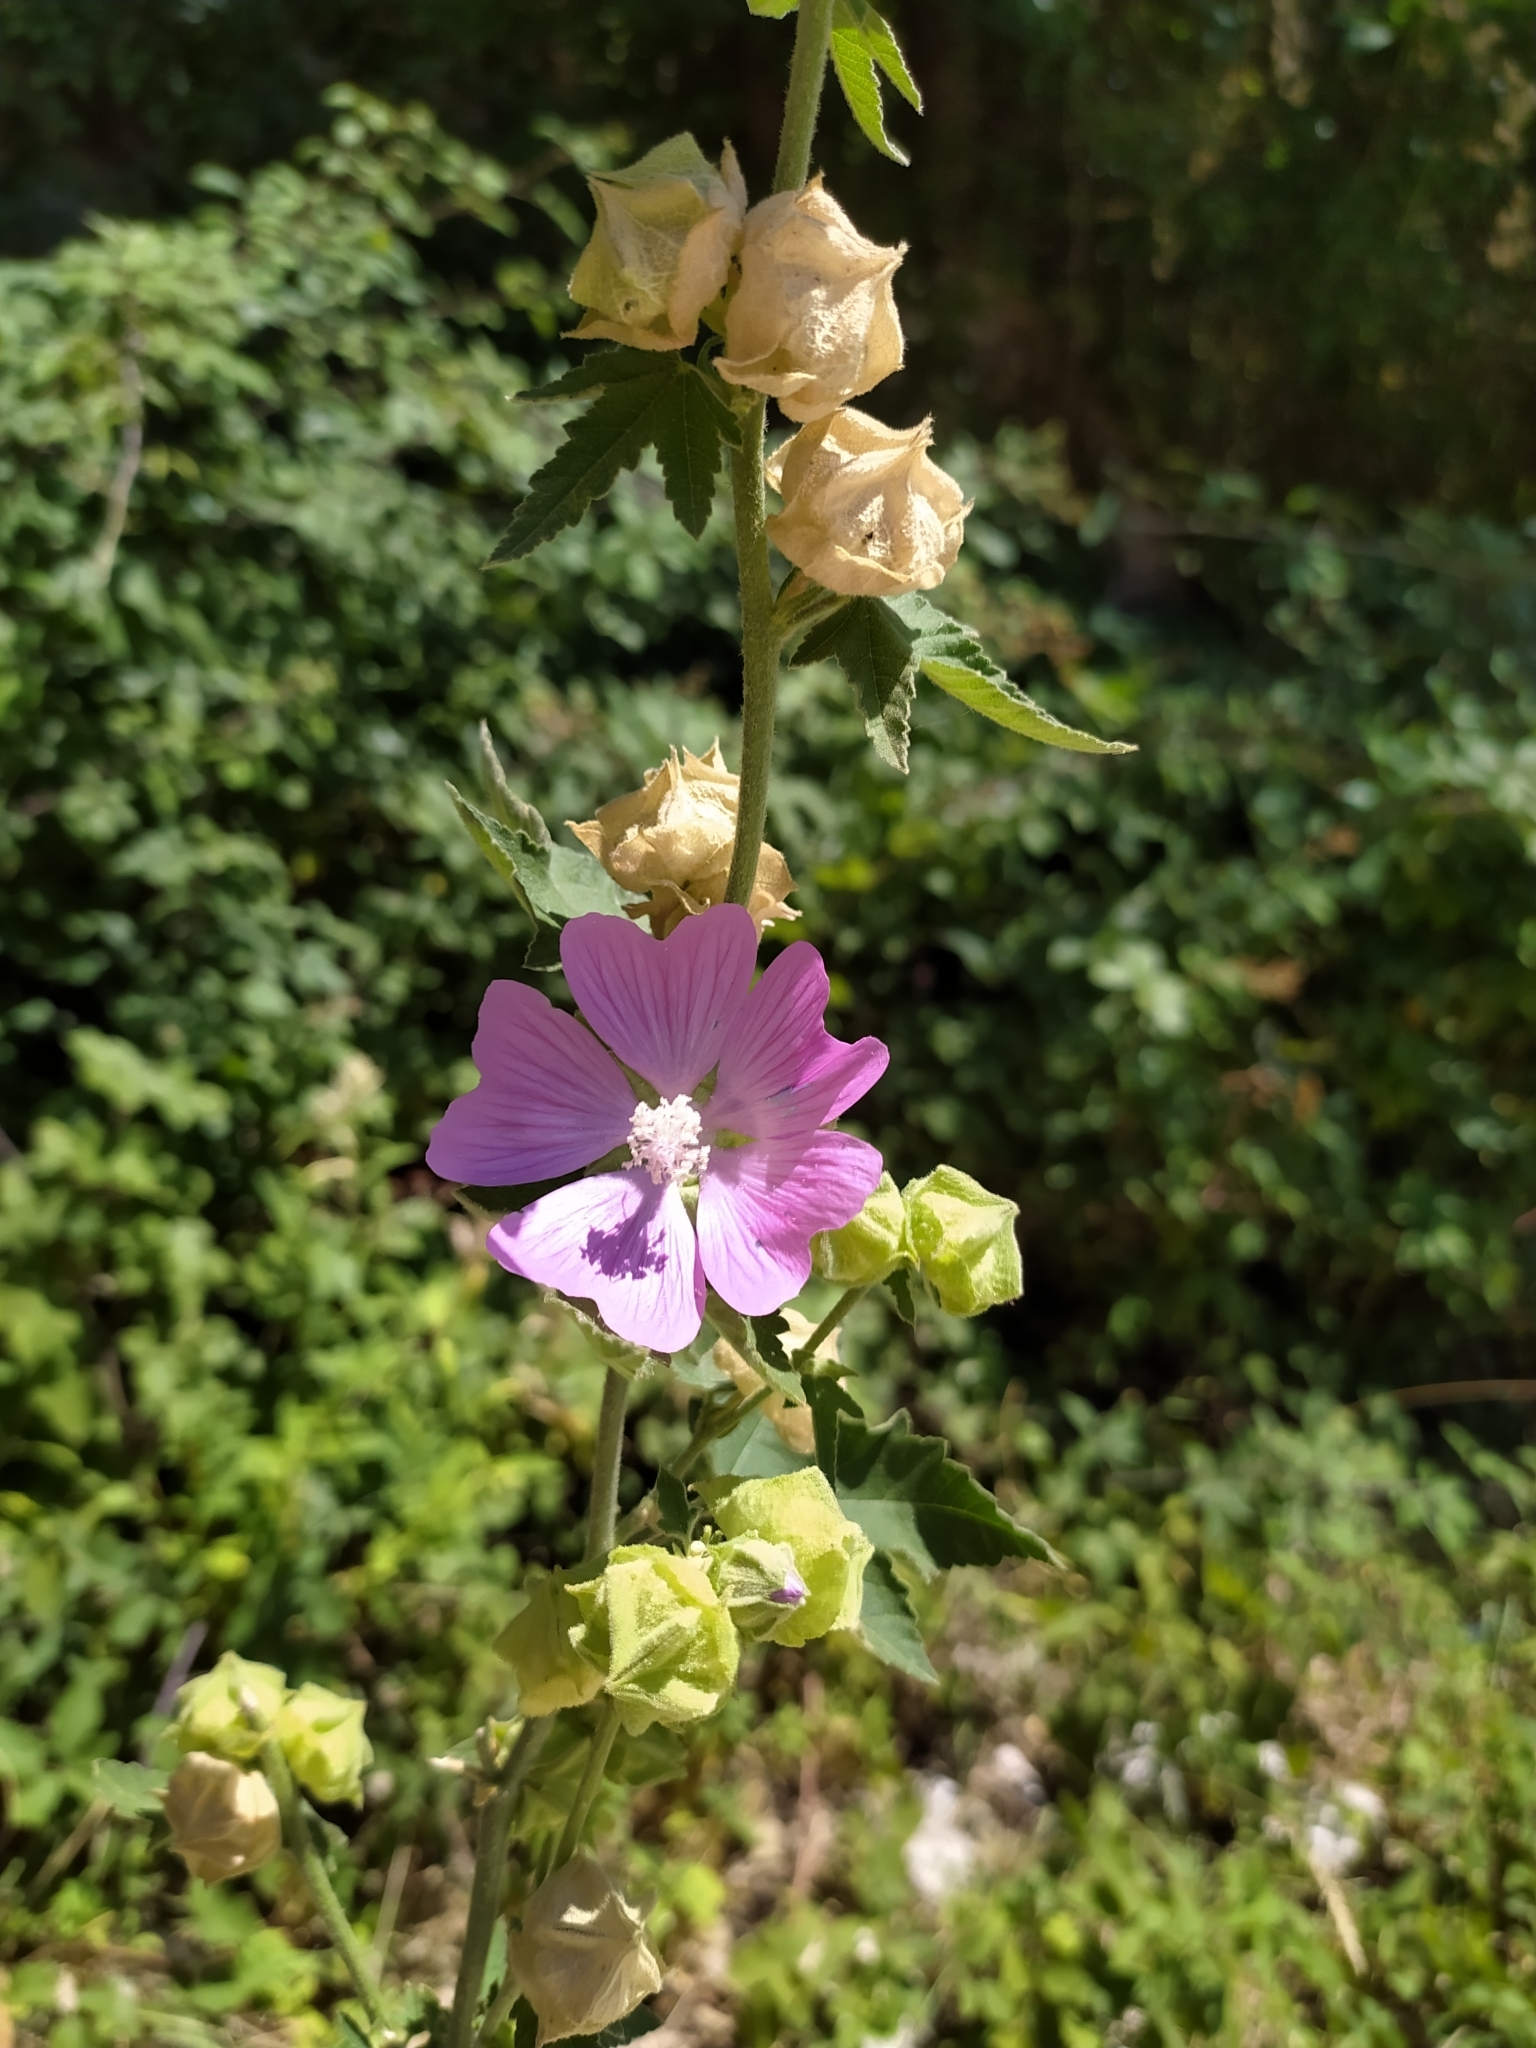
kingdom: Plantae
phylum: Tracheophyta
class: Magnoliopsida
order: Malvales
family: Malvaceae
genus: Malva
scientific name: Malva thuringiaca
